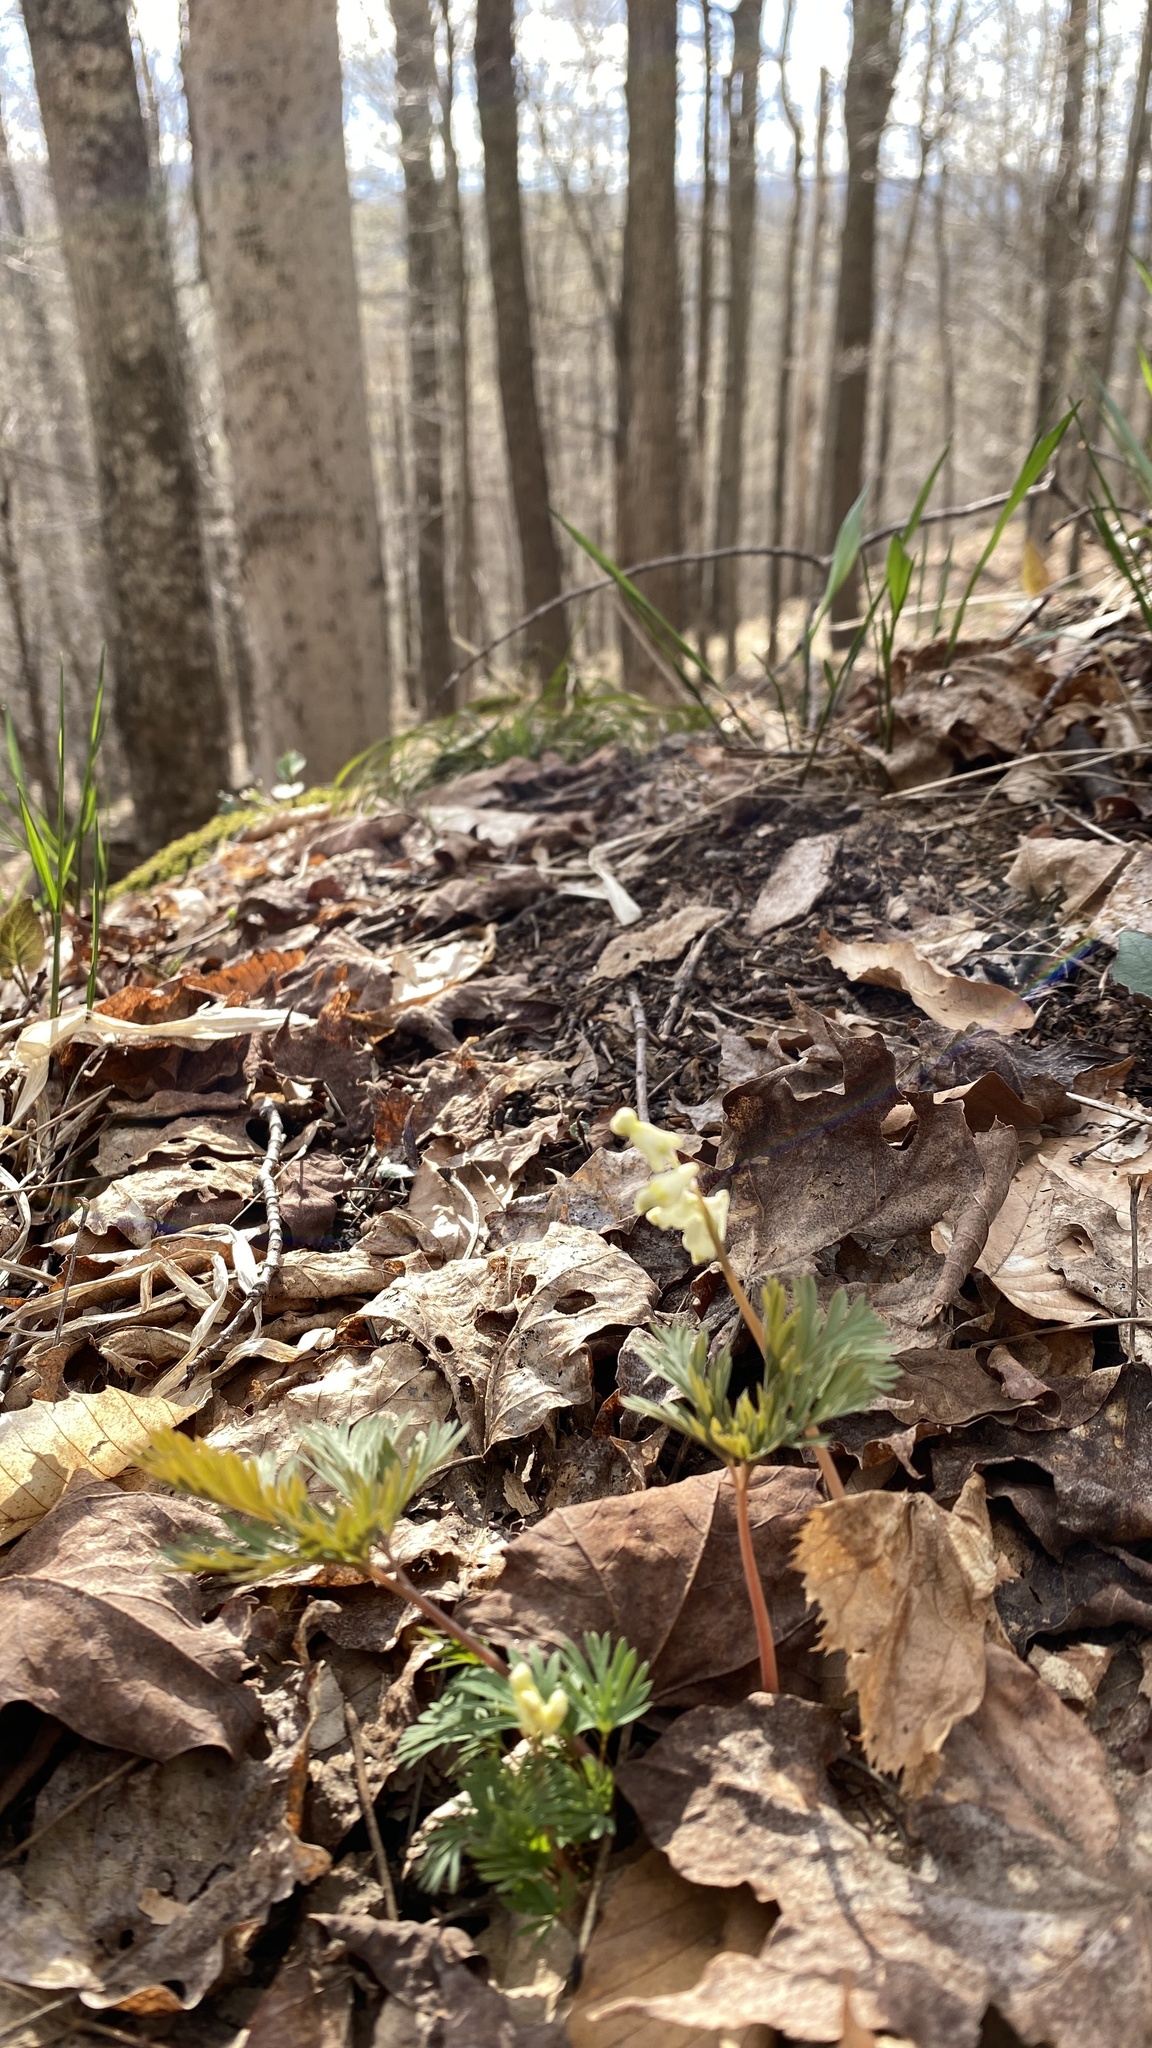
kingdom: Plantae
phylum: Tracheophyta
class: Magnoliopsida
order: Ranunculales
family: Papaveraceae
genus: Dicentra
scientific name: Dicentra cucullaria
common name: Dutchman's breeches
